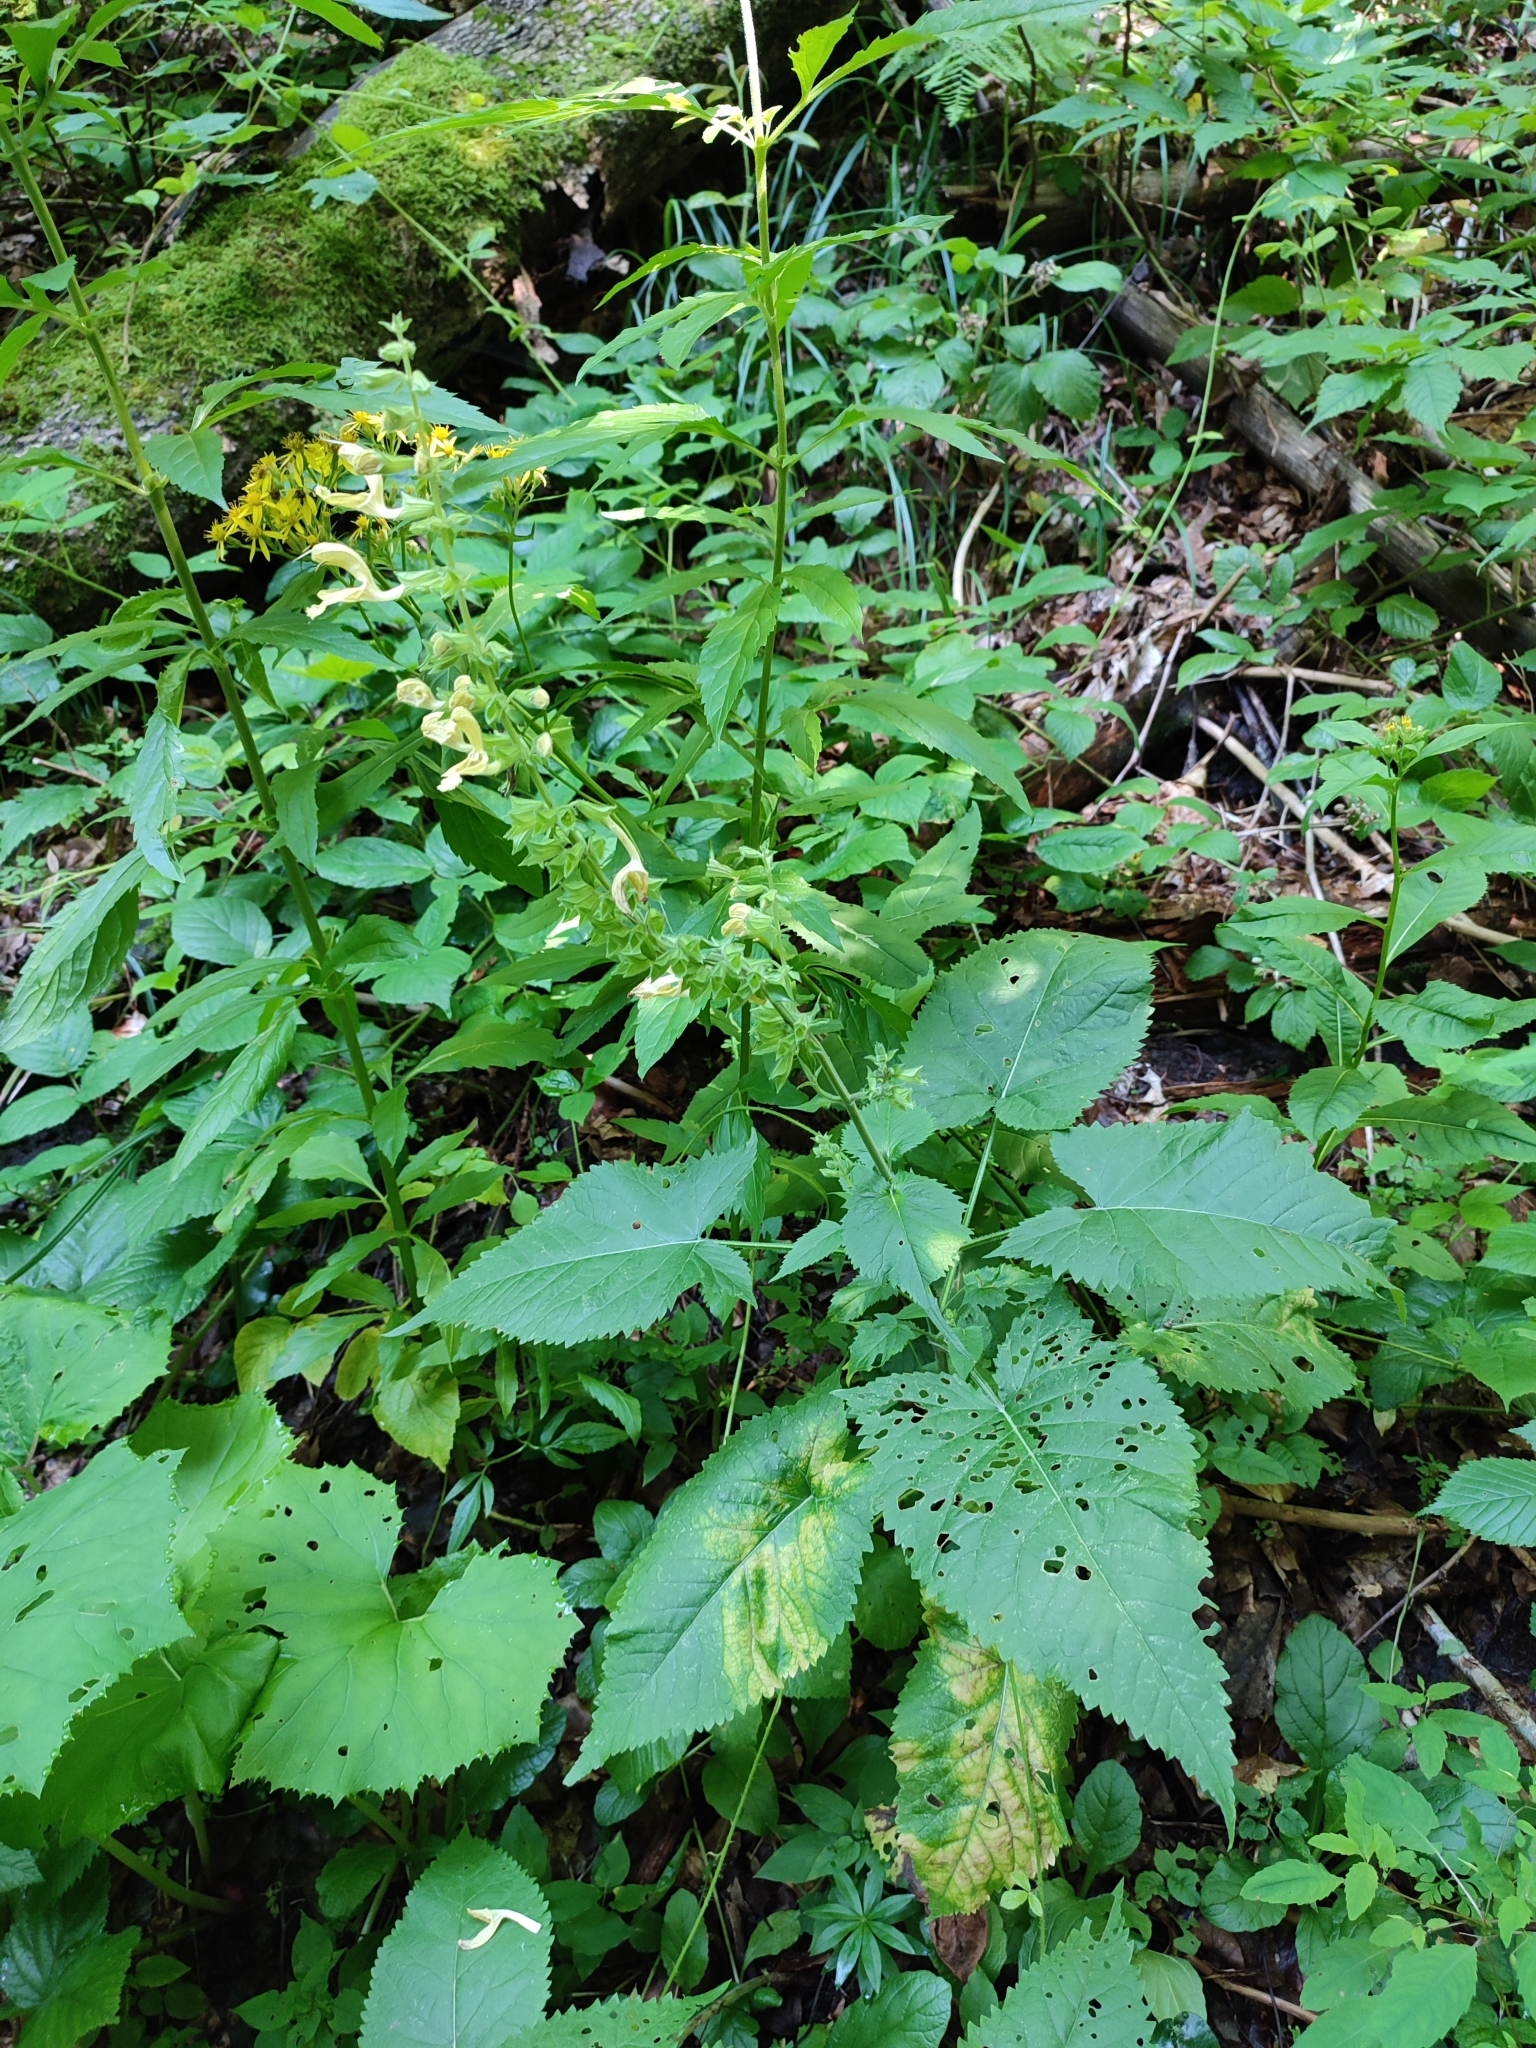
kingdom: Plantae
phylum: Tracheophyta
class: Magnoliopsida
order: Lamiales
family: Lamiaceae
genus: Salvia
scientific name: Salvia glutinosa
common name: Sticky clary
